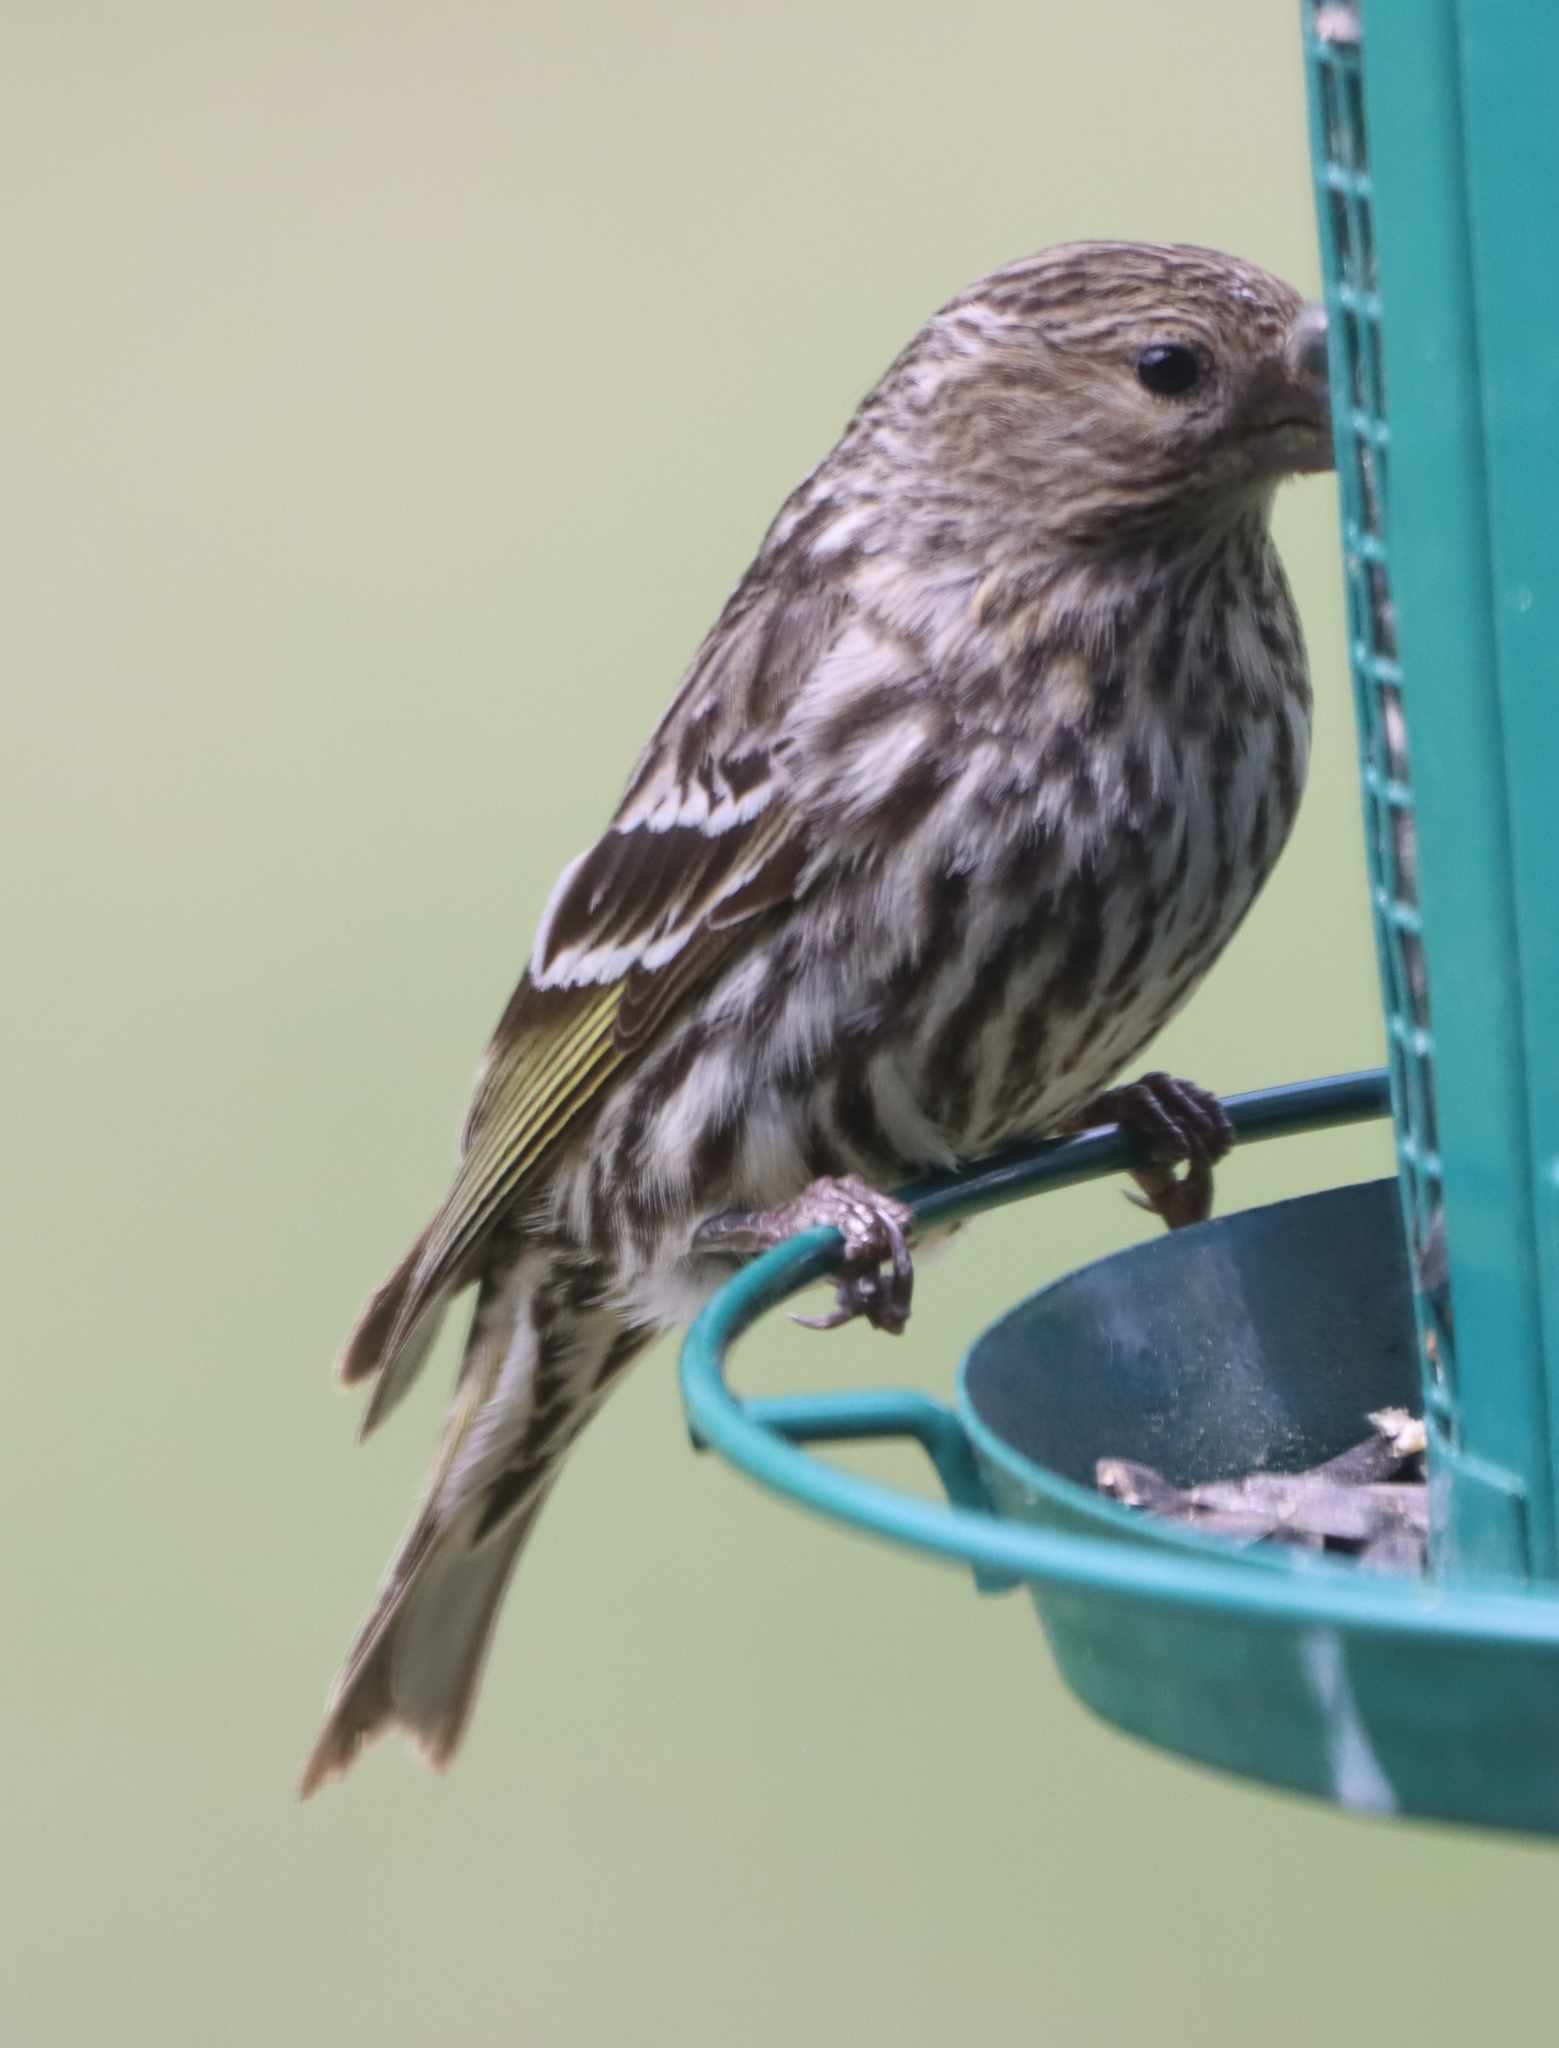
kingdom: Animalia
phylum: Chordata
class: Aves
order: Passeriformes
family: Fringillidae
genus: Spinus
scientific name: Spinus pinus
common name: Pine siskin
